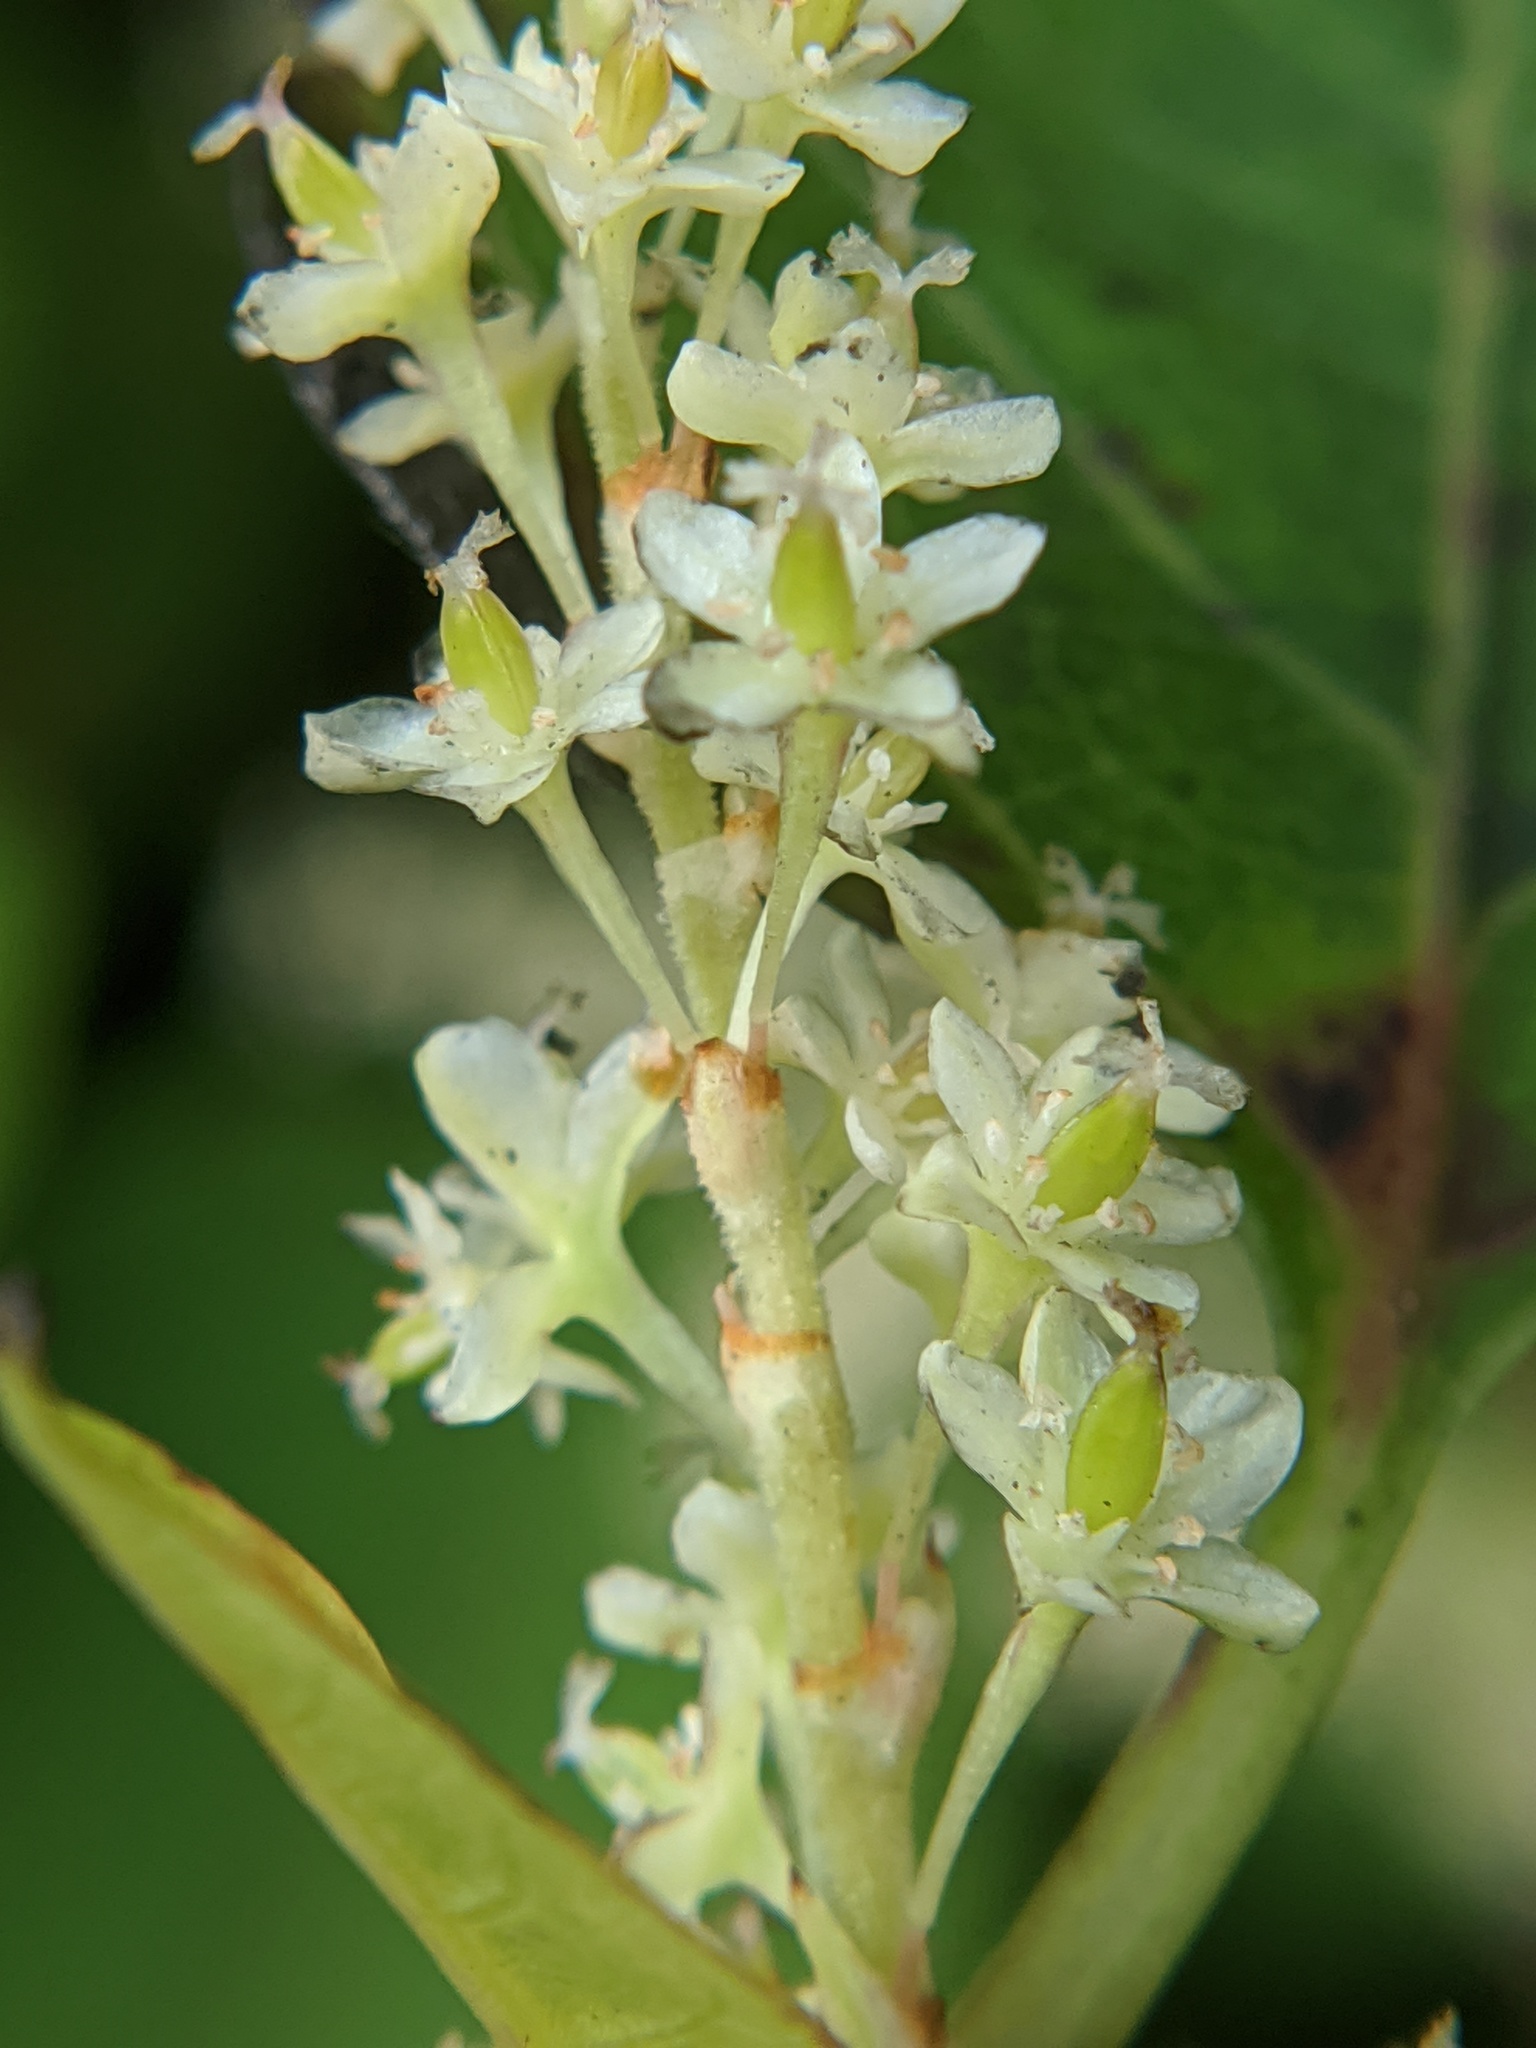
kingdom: Plantae
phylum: Tracheophyta
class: Magnoliopsida
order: Caryophyllales
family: Polygonaceae
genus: Reynoutria
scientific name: Reynoutria japonica
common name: Japanese knotweed
